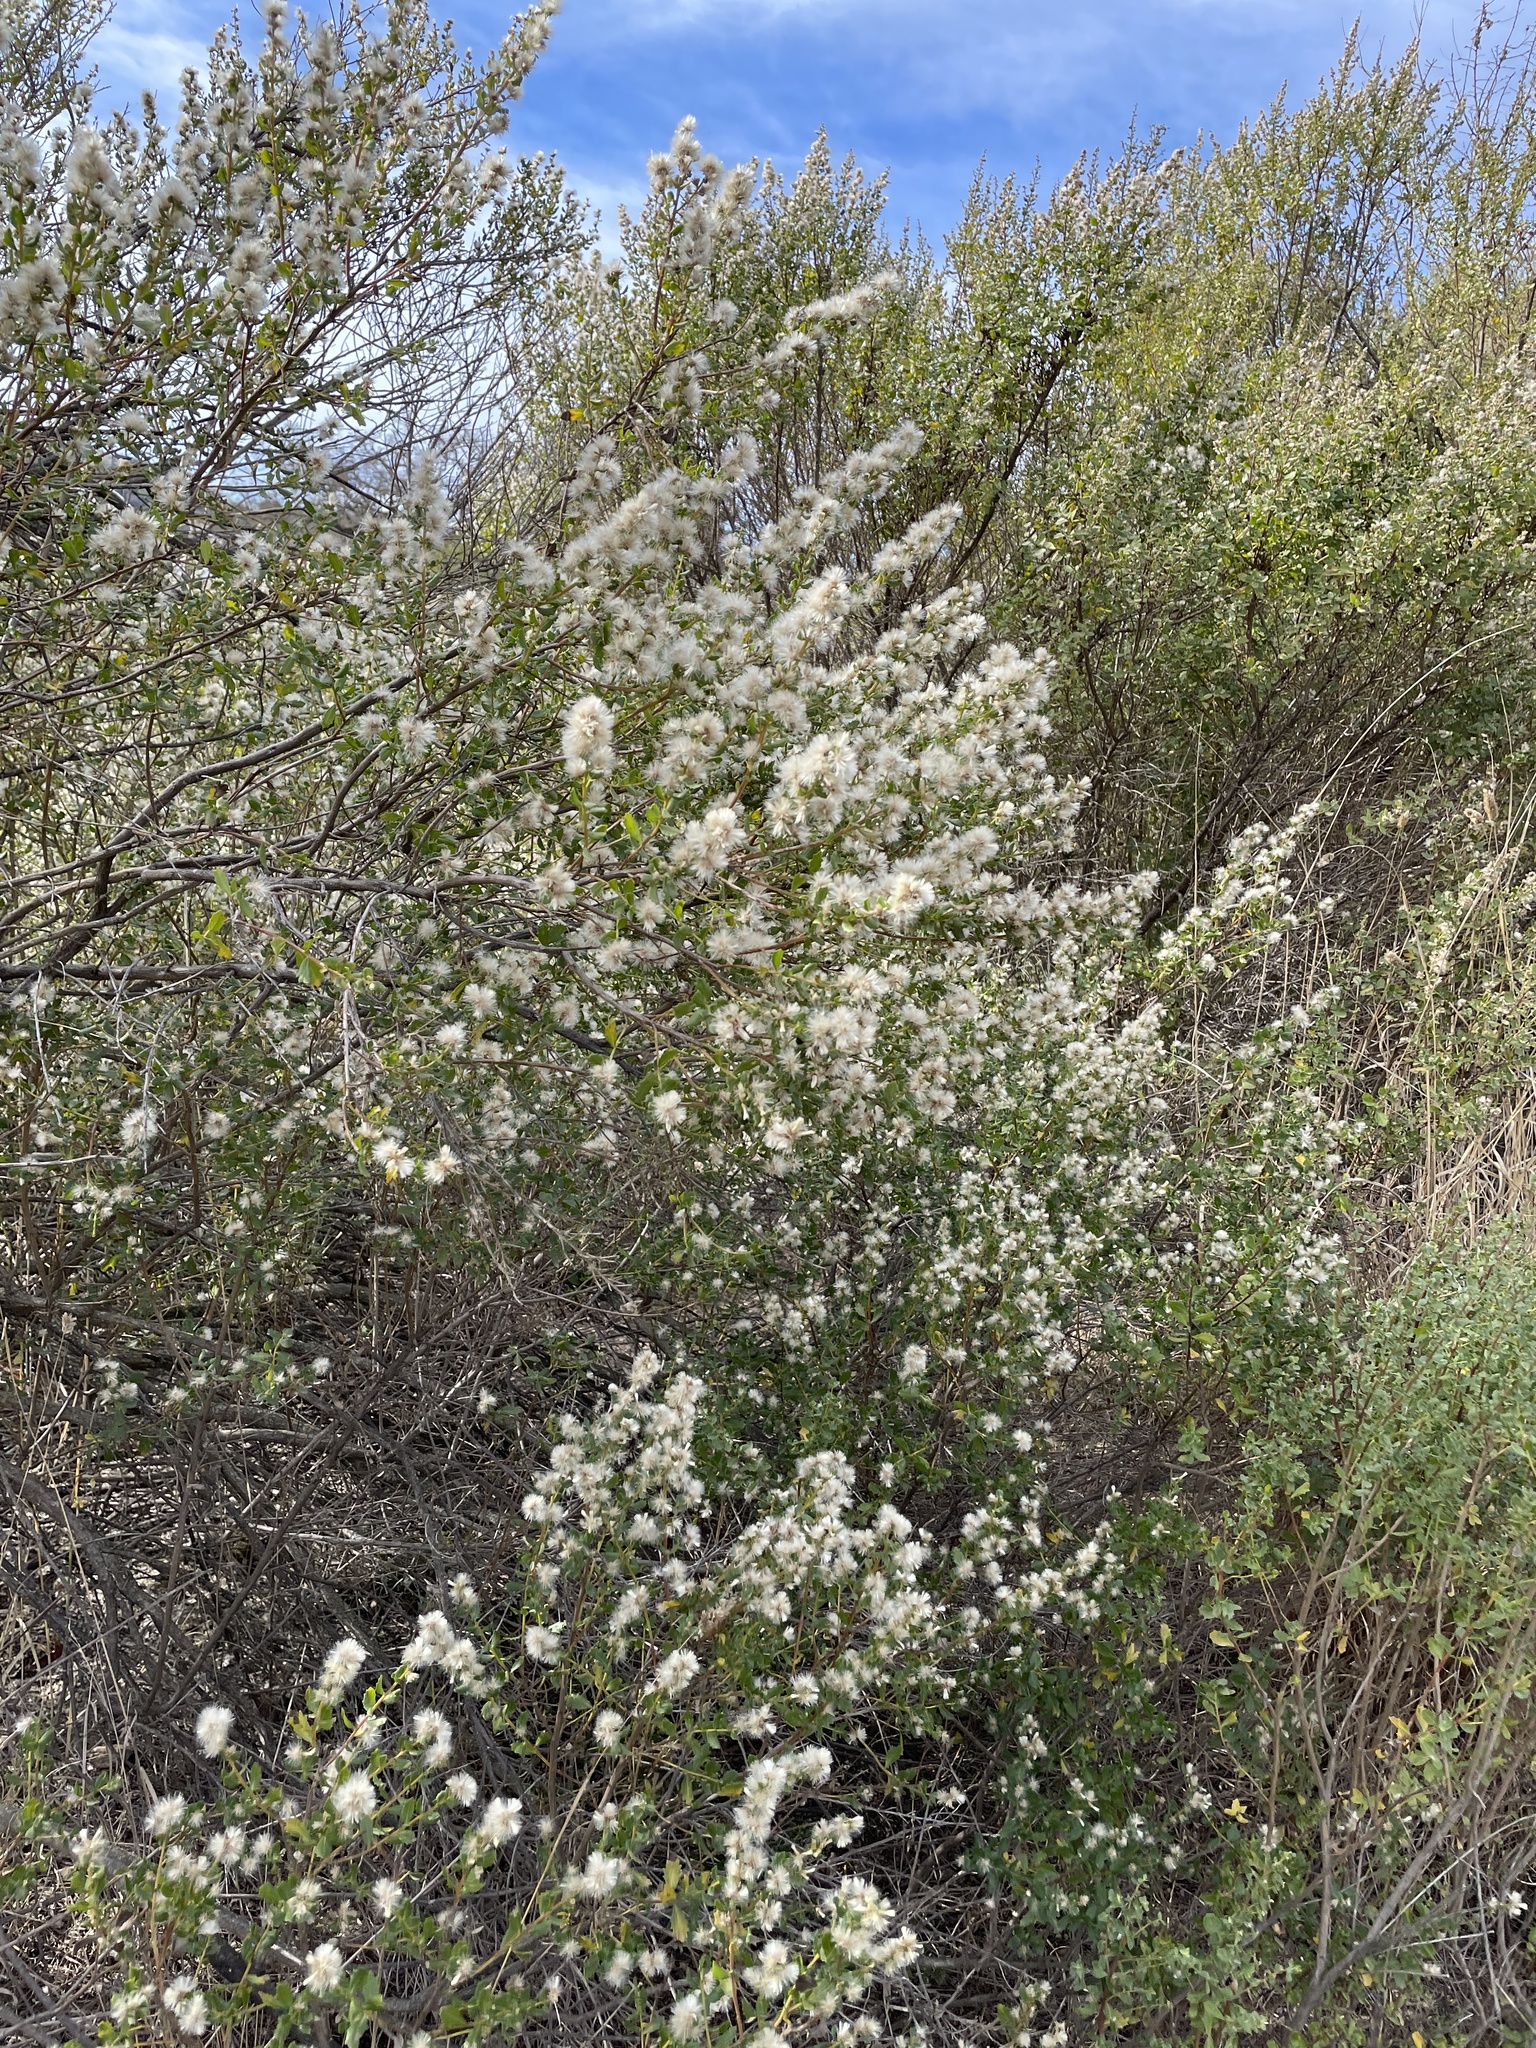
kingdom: Plantae
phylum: Tracheophyta
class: Magnoliopsida
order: Asterales
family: Asteraceae
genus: Baccharis
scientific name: Baccharis pilularis
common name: Coyotebrush
